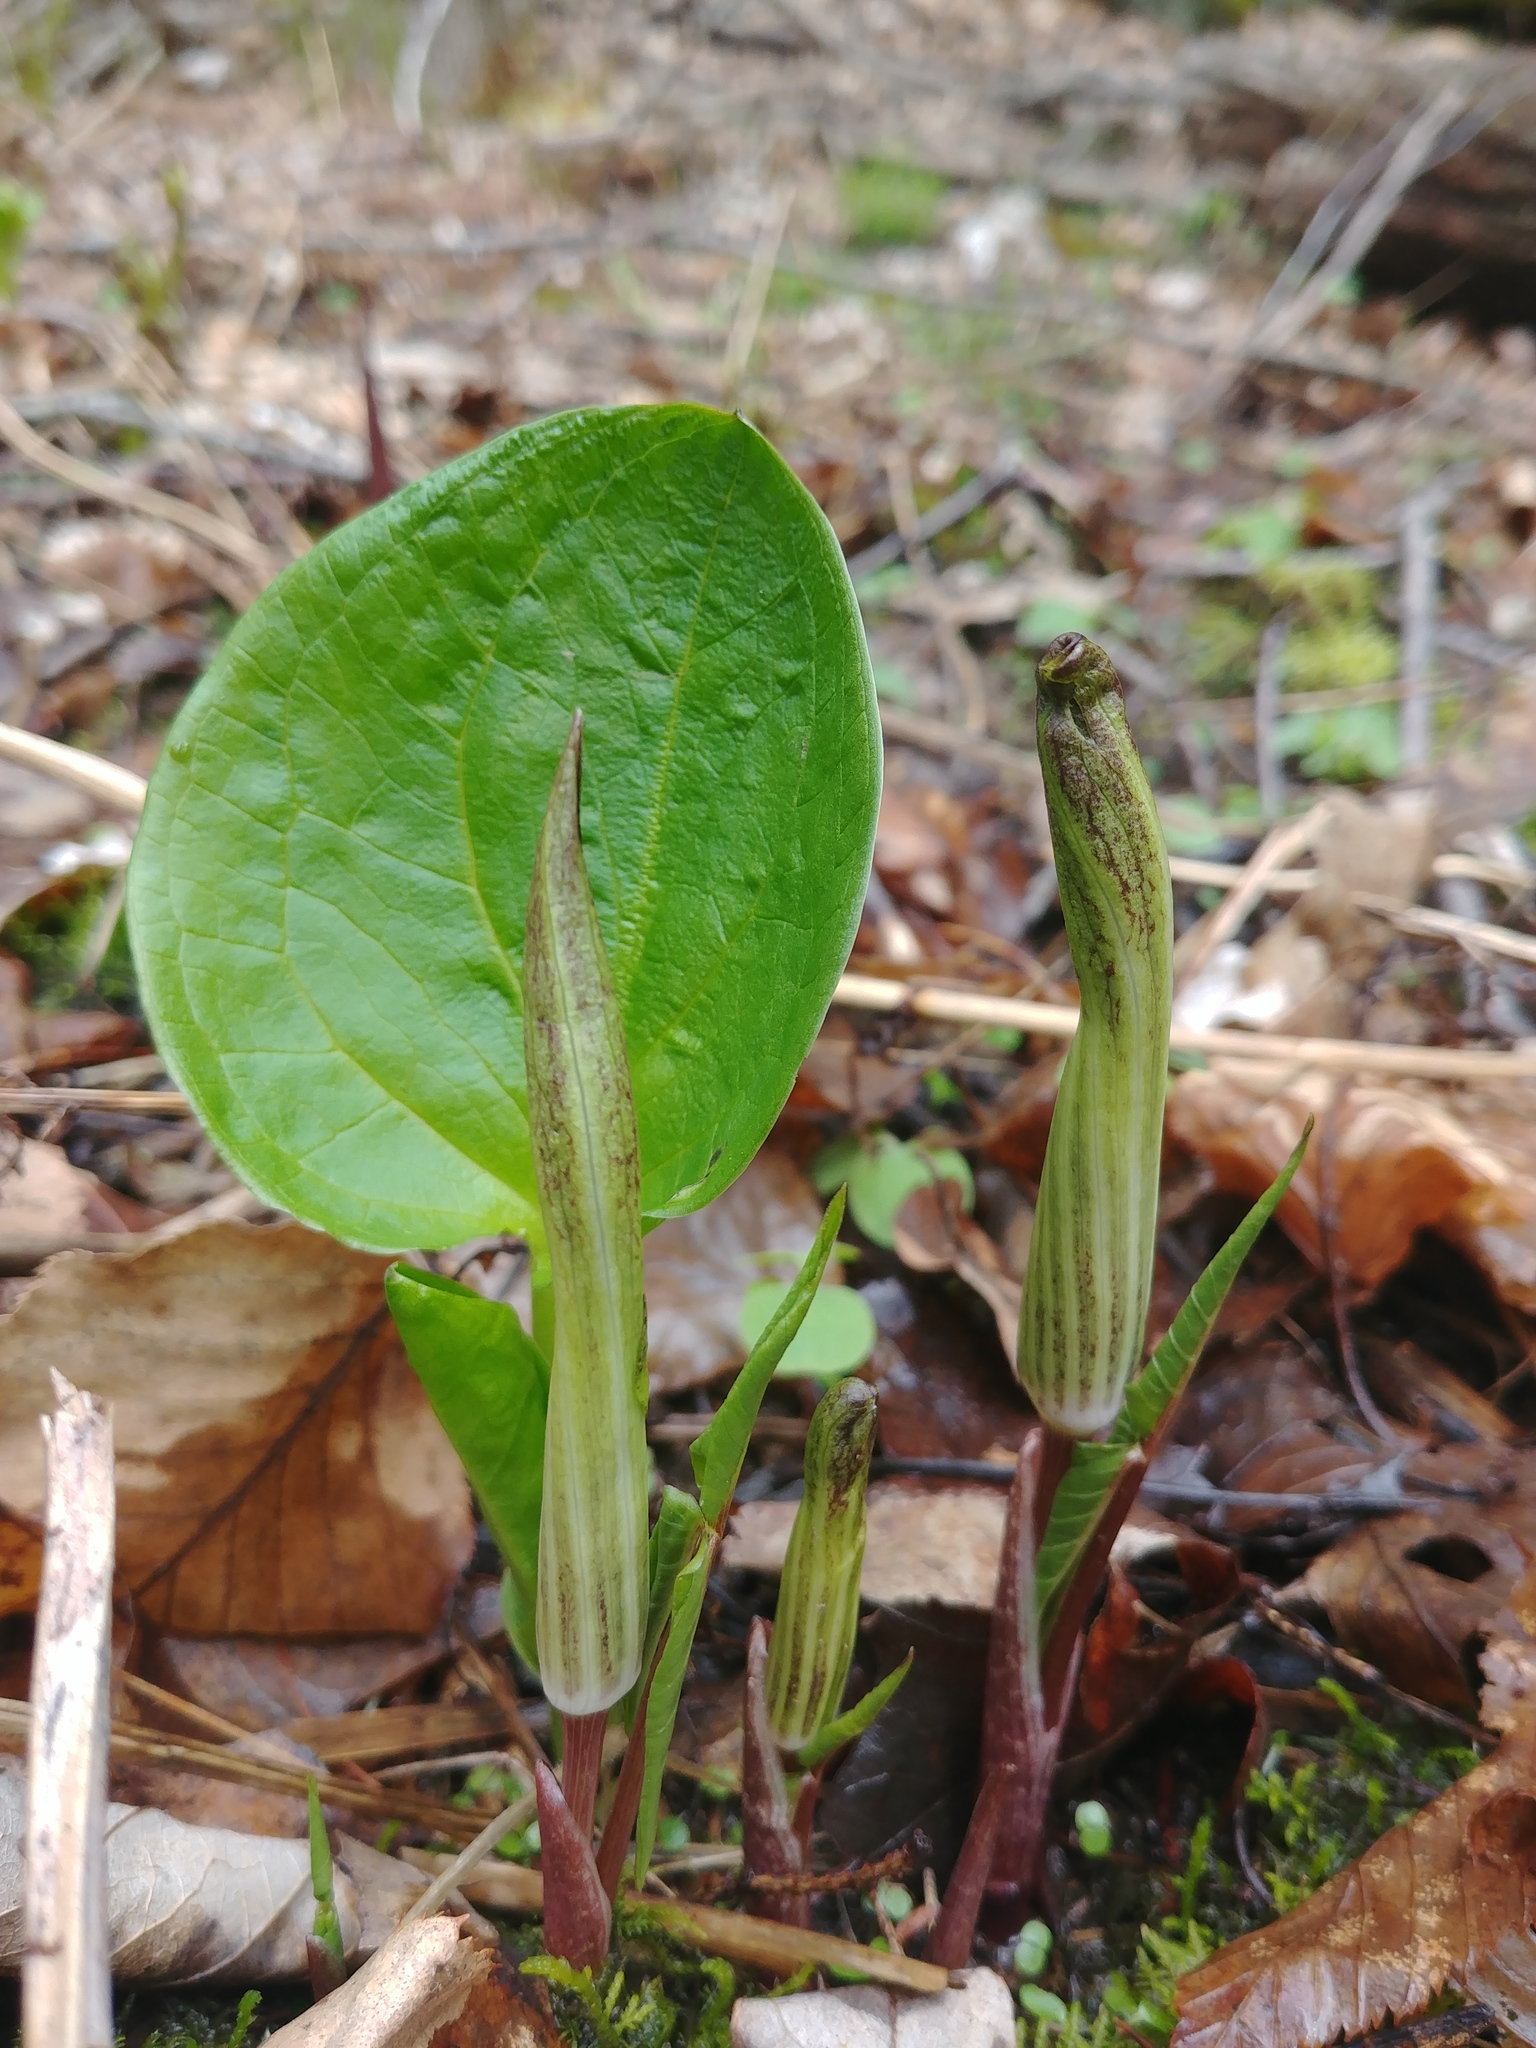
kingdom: Plantae
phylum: Tracheophyta
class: Liliopsida
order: Alismatales
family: Araceae
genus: Arisaema
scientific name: Arisaema triphyllum
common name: Jack-in-the-pulpit
